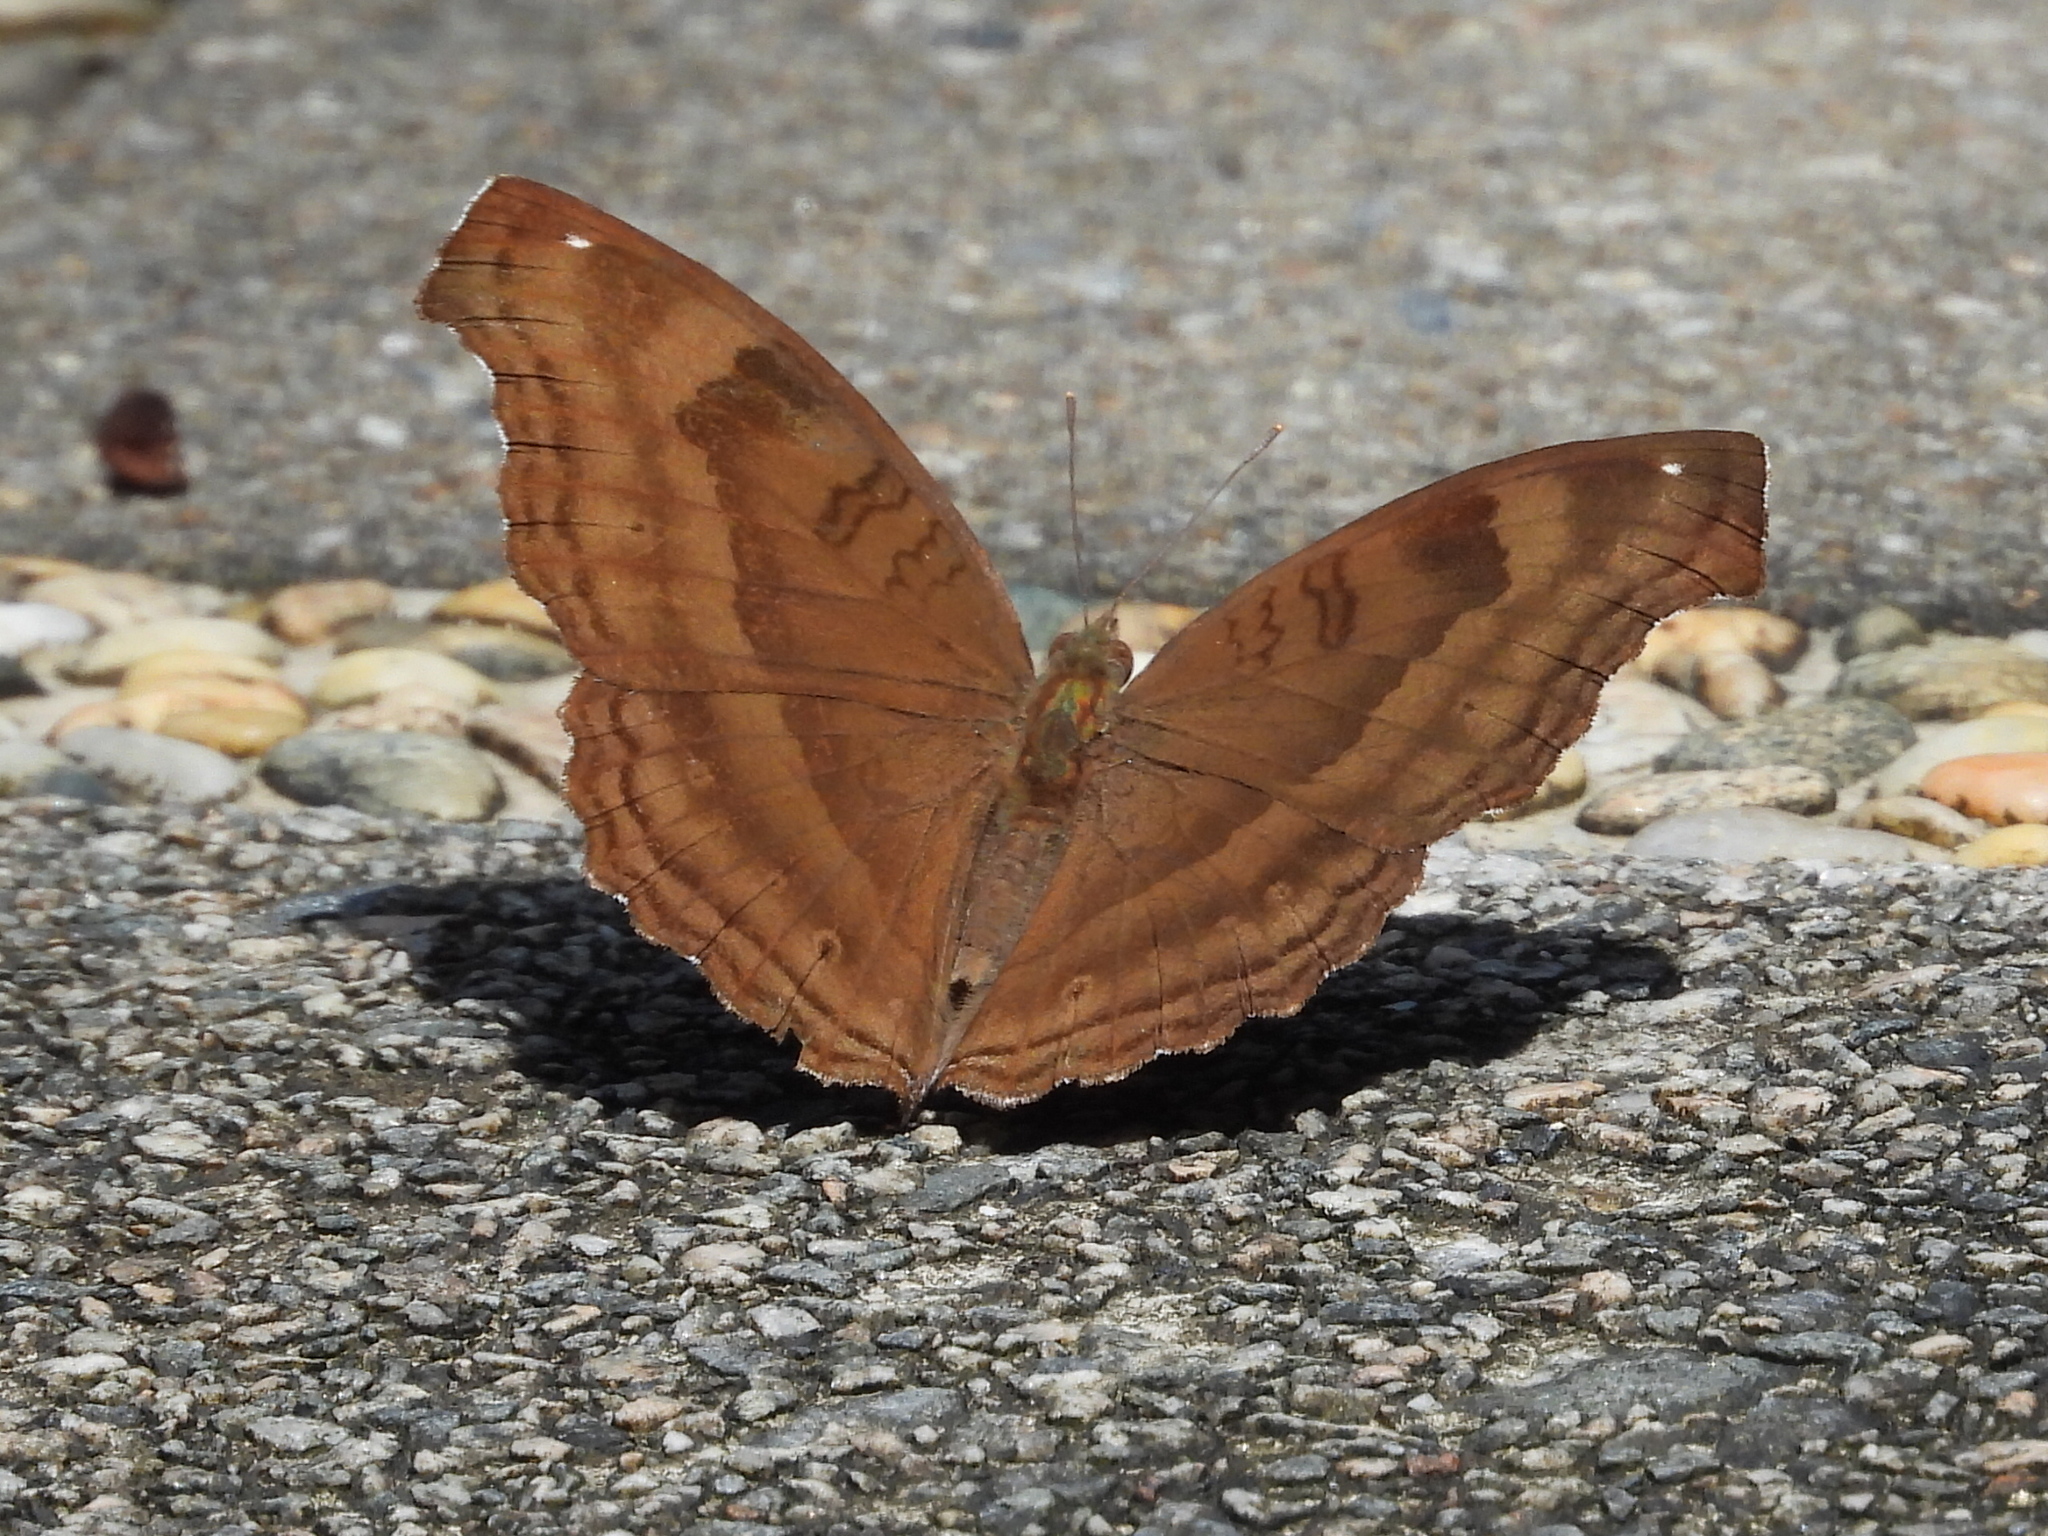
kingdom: Animalia
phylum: Arthropoda
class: Insecta
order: Lepidoptera
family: Nymphalidae
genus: Junonia
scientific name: Junonia iphita
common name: Chocolate pansy
